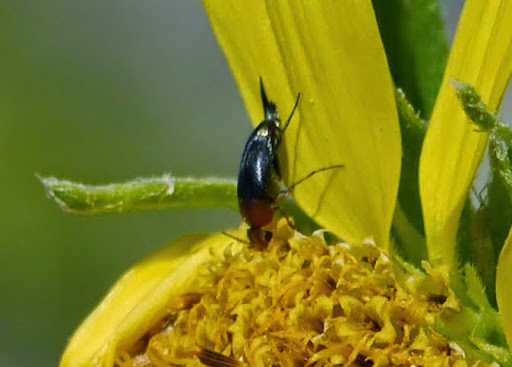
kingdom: Animalia
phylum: Arthropoda
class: Insecta
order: Coleoptera
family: Mordellidae
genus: Mordellistena
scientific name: Mordellistena comata
